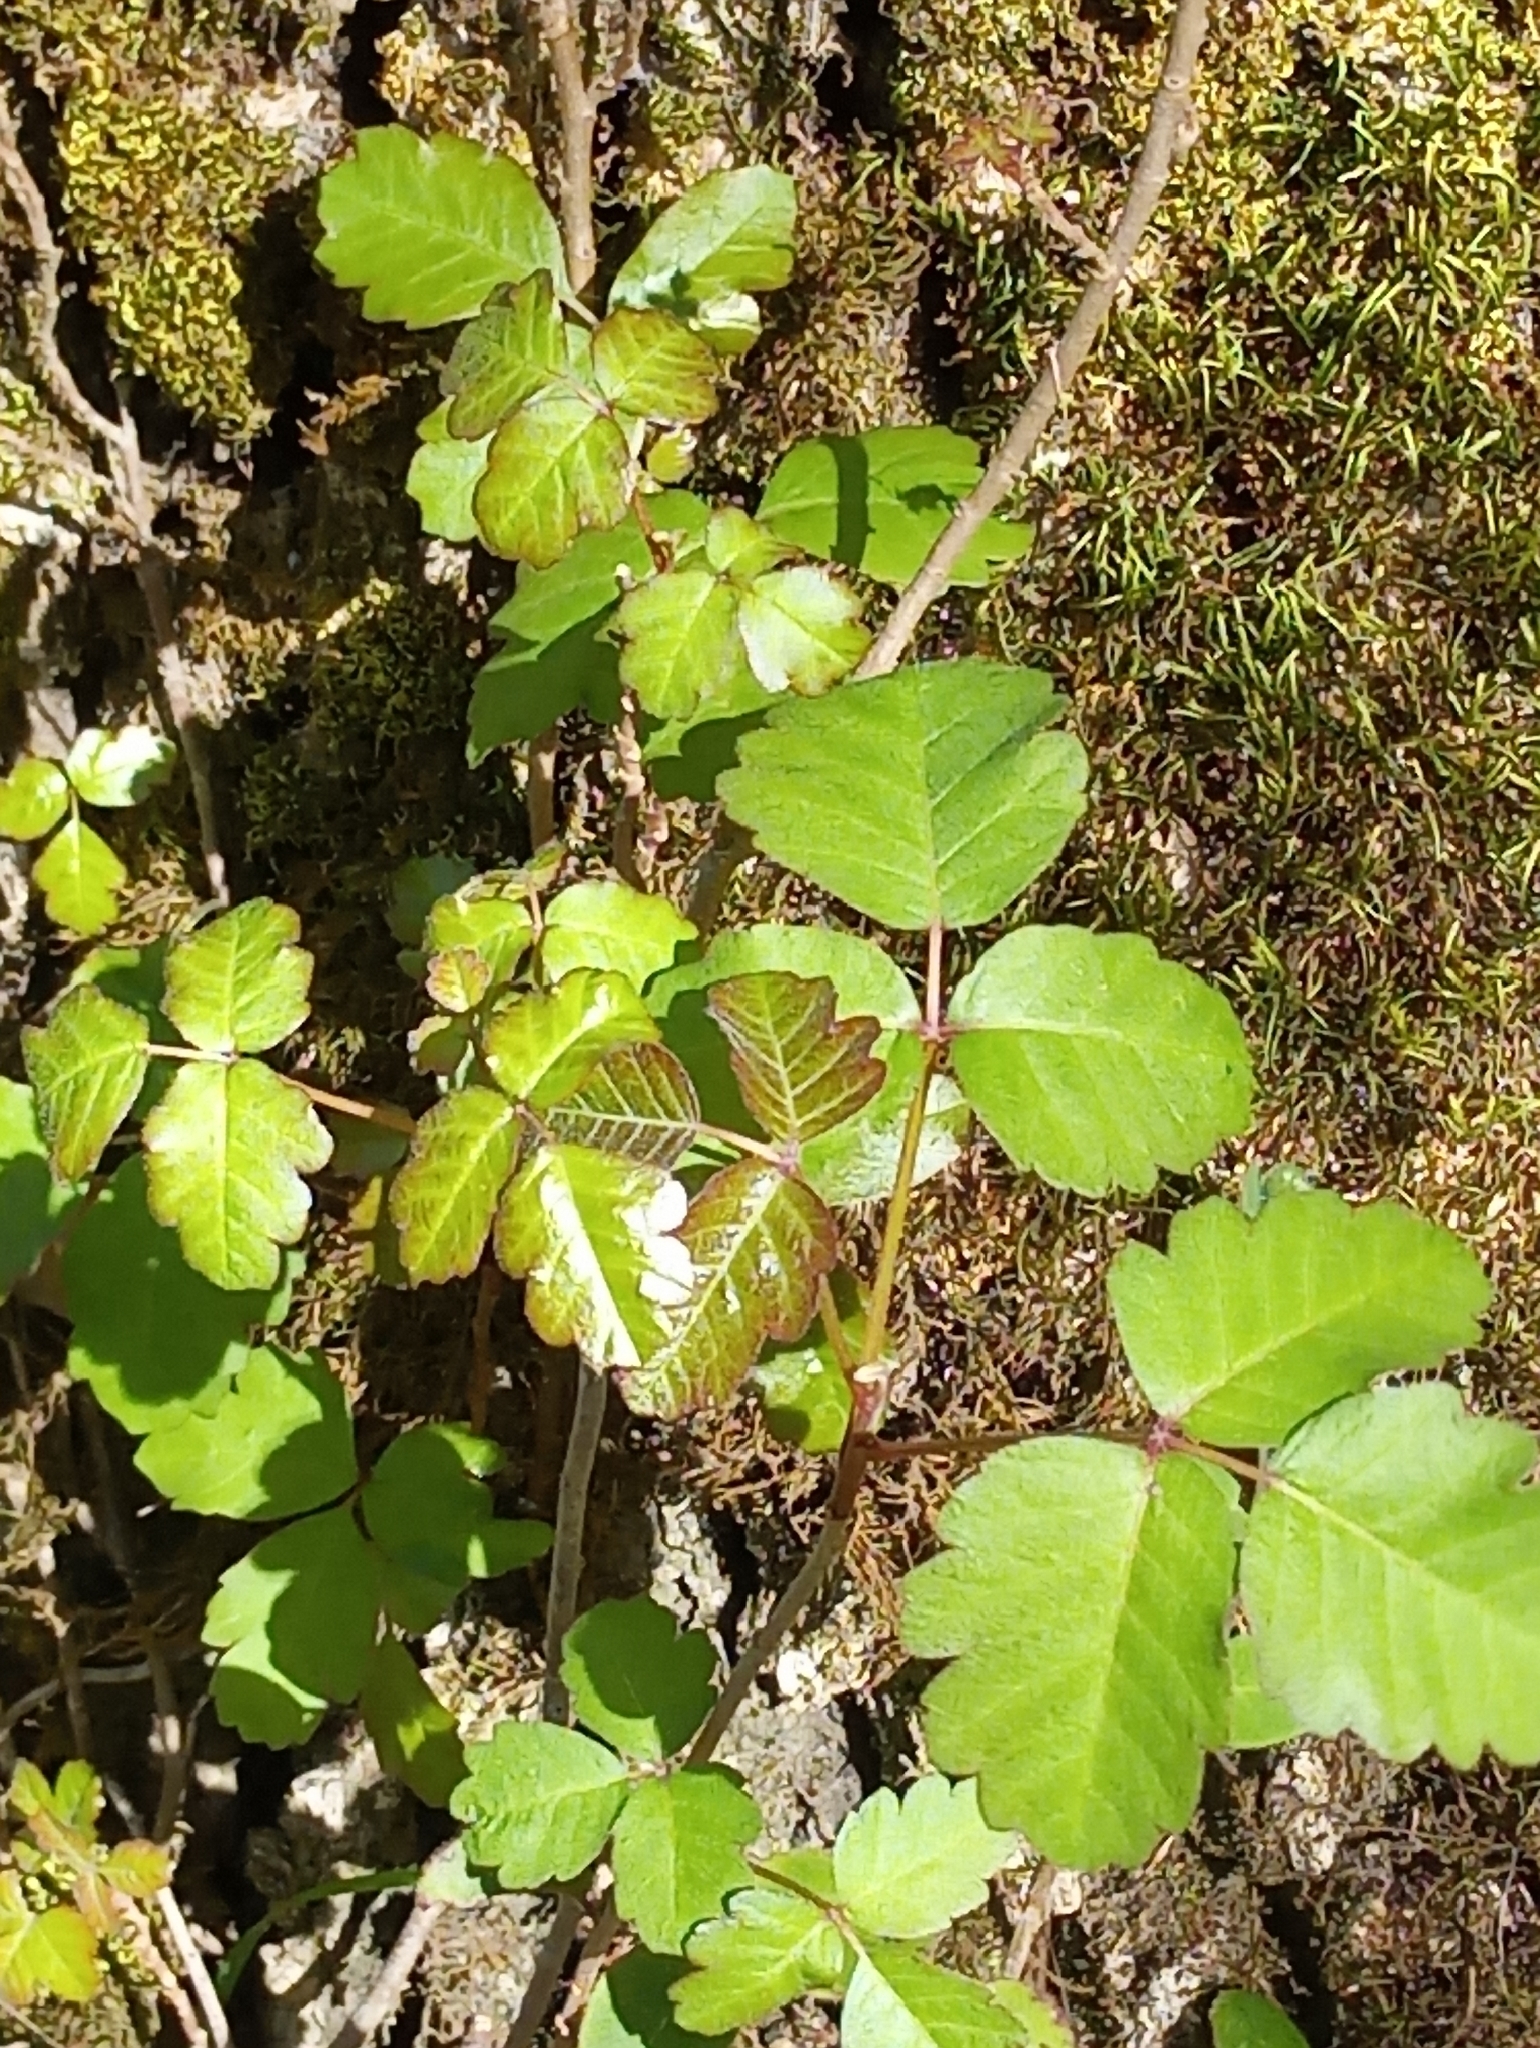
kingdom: Plantae
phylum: Tracheophyta
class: Magnoliopsida
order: Sapindales
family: Anacardiaceae
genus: Toxicodendron
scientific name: Toxicodendron diversilobum
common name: Pacific poison-oak
